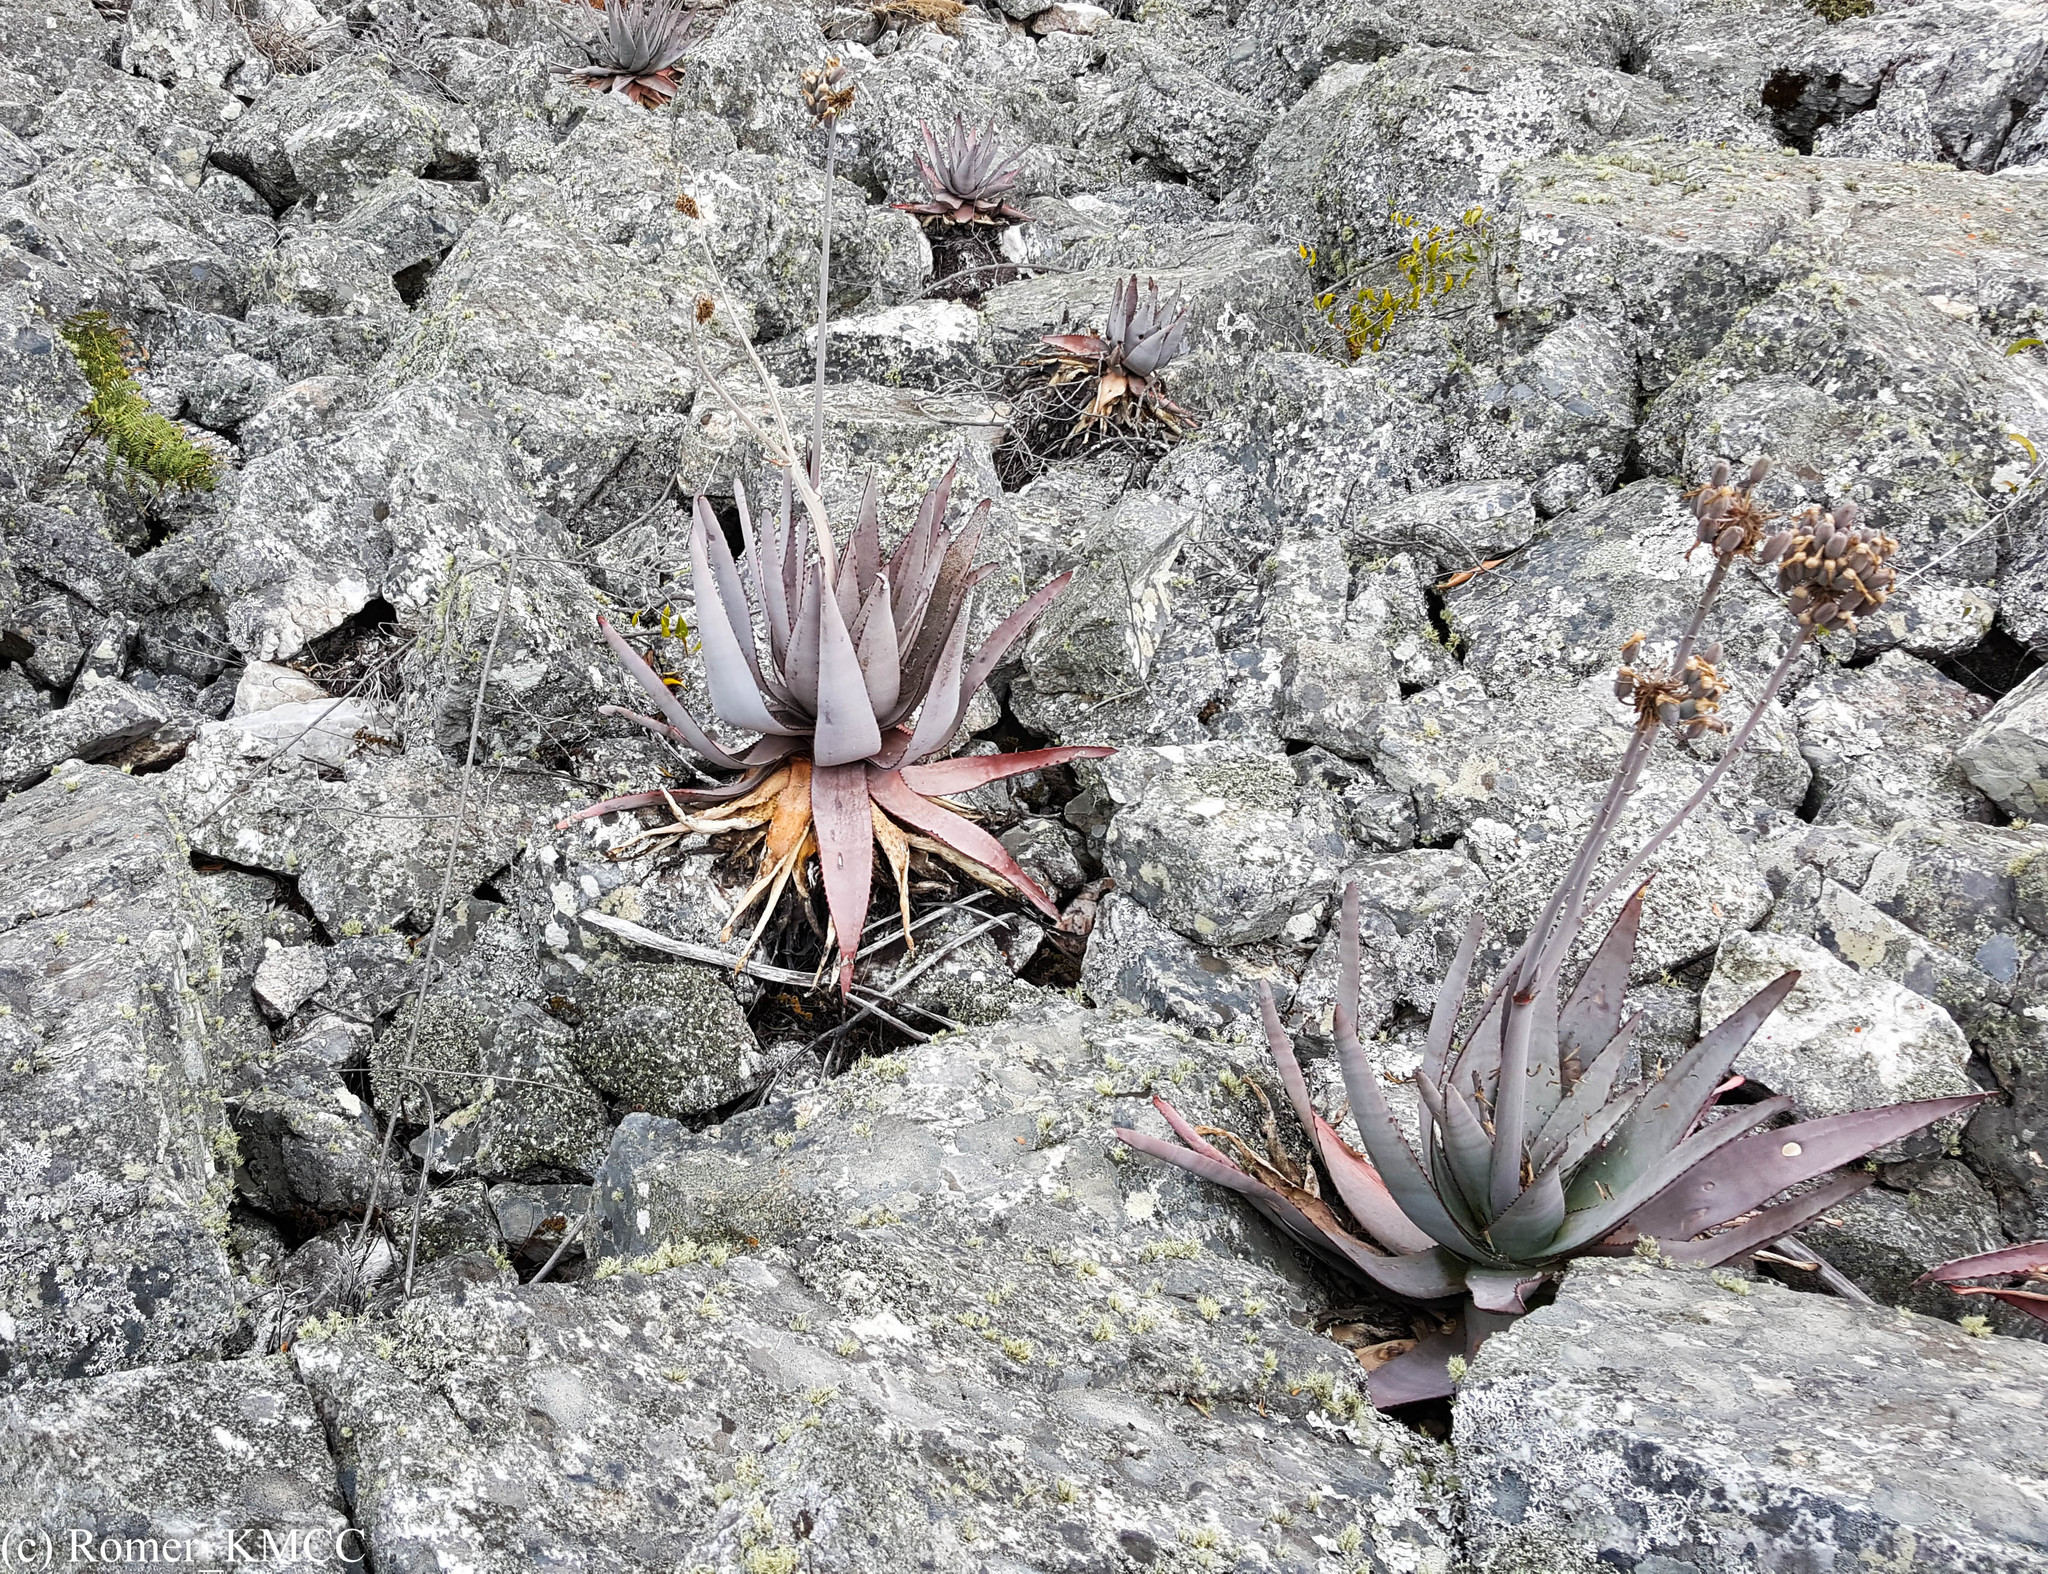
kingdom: Plantae
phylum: Tracheophyta
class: Liliopsida
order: Asparagales
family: Asphodelaceae
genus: Aloe
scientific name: Aloe capitata
